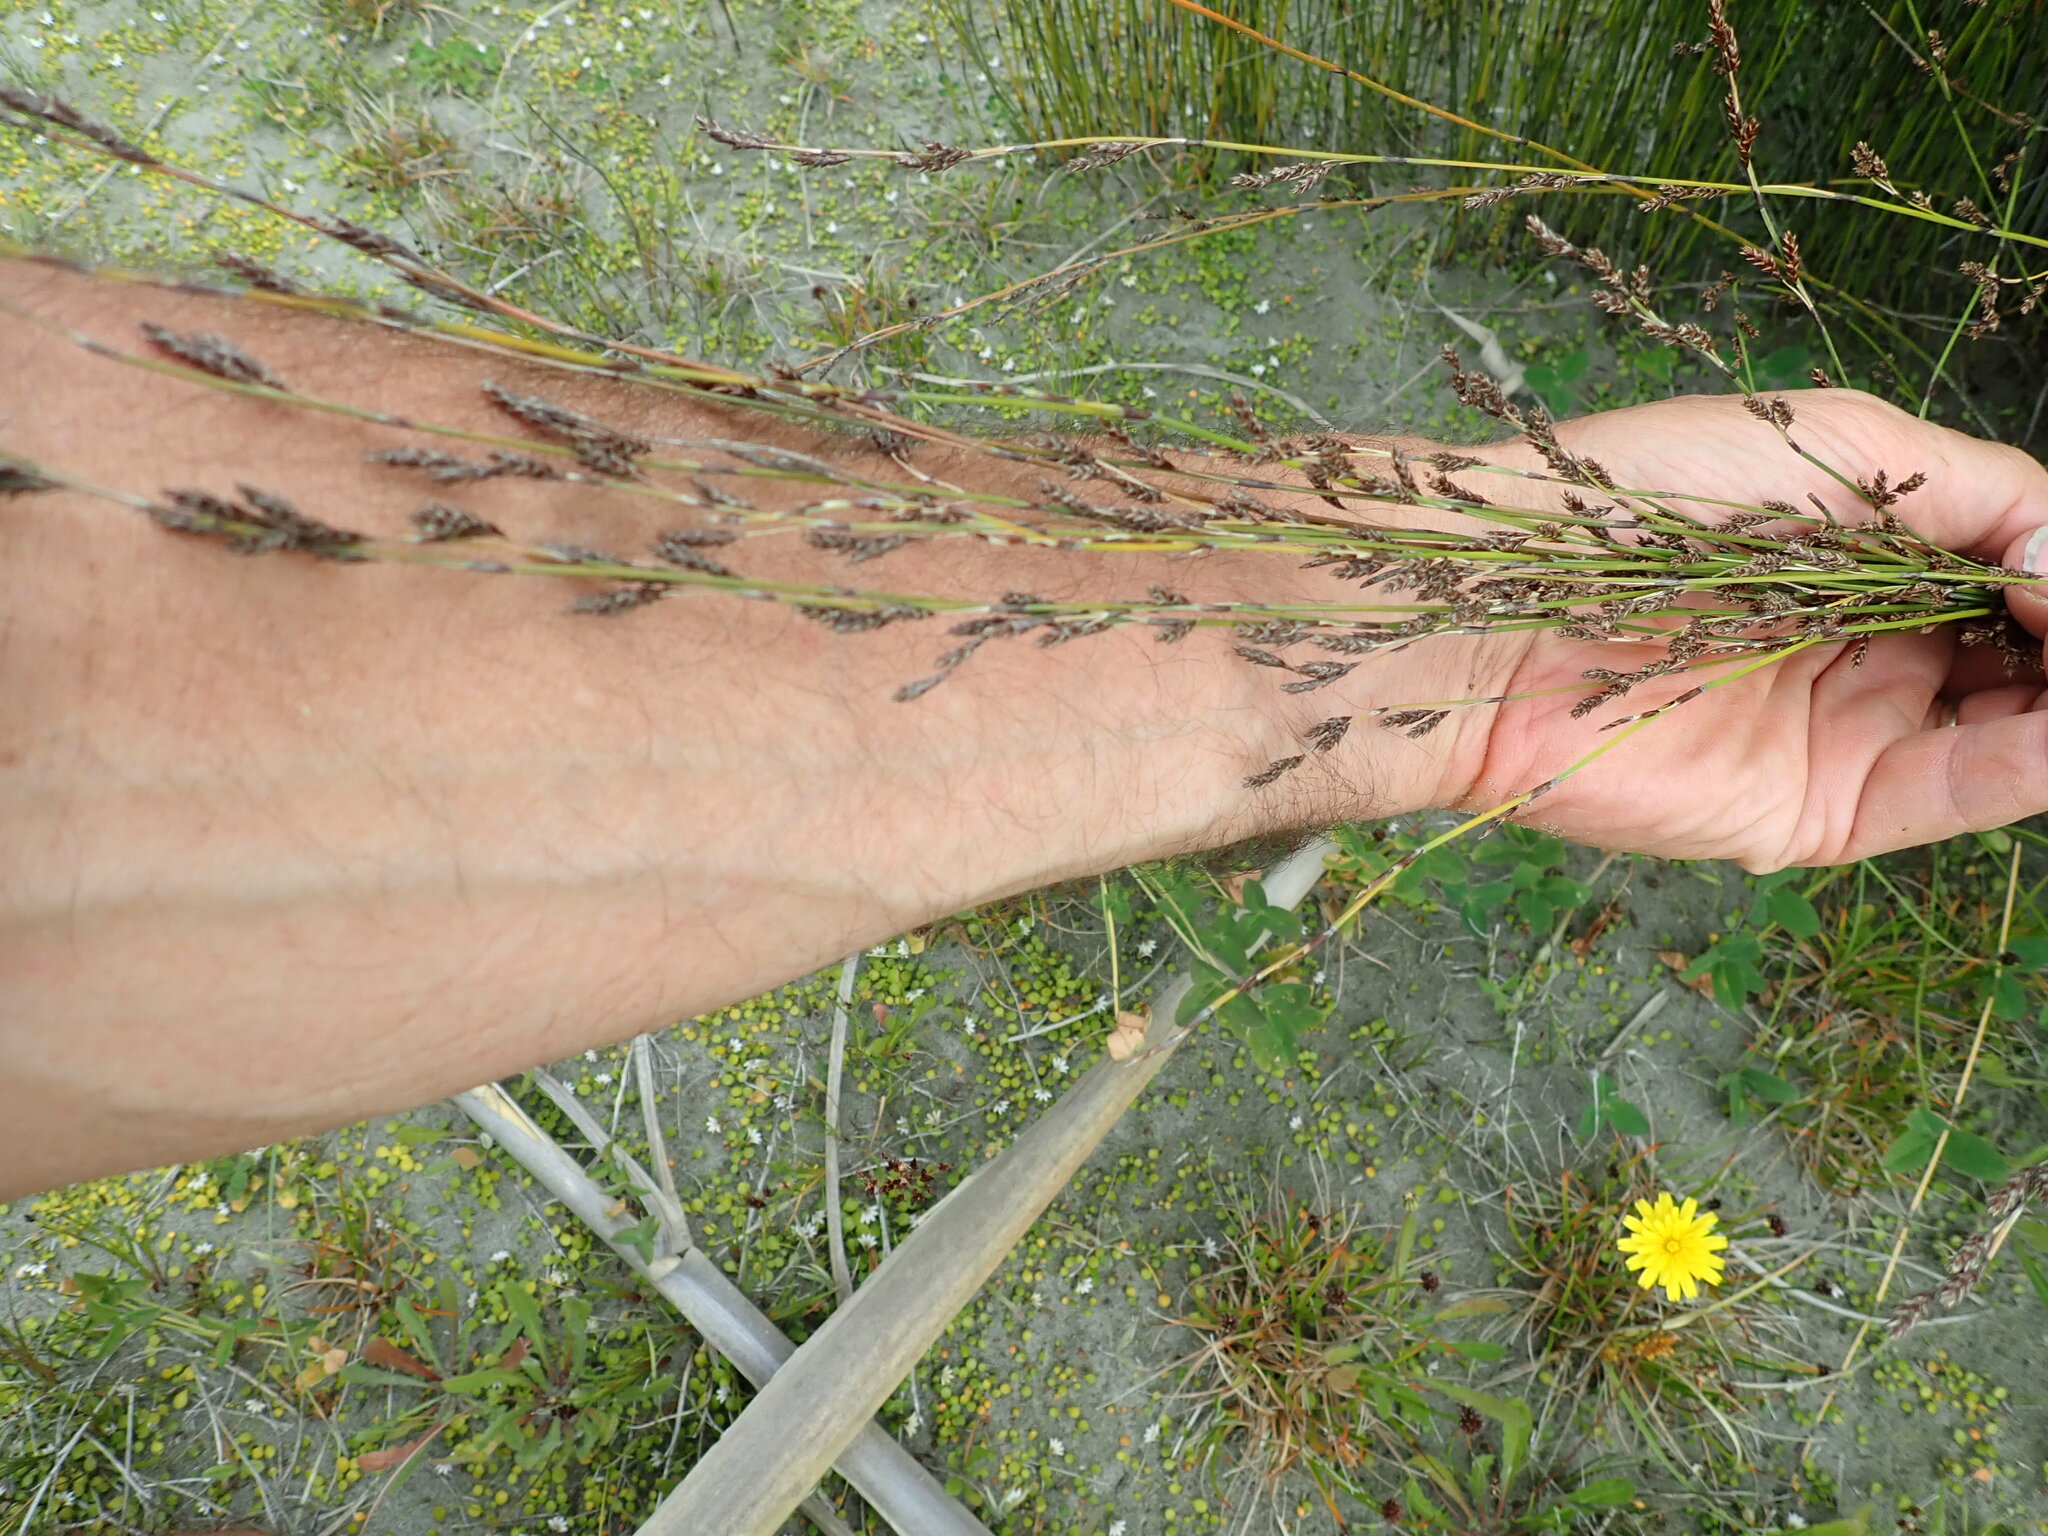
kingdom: Plantae
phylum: Tracheophyta
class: Liliopsida
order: Poales
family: Restionaceae
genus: Apodasmia
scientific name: Apodasmia similis
